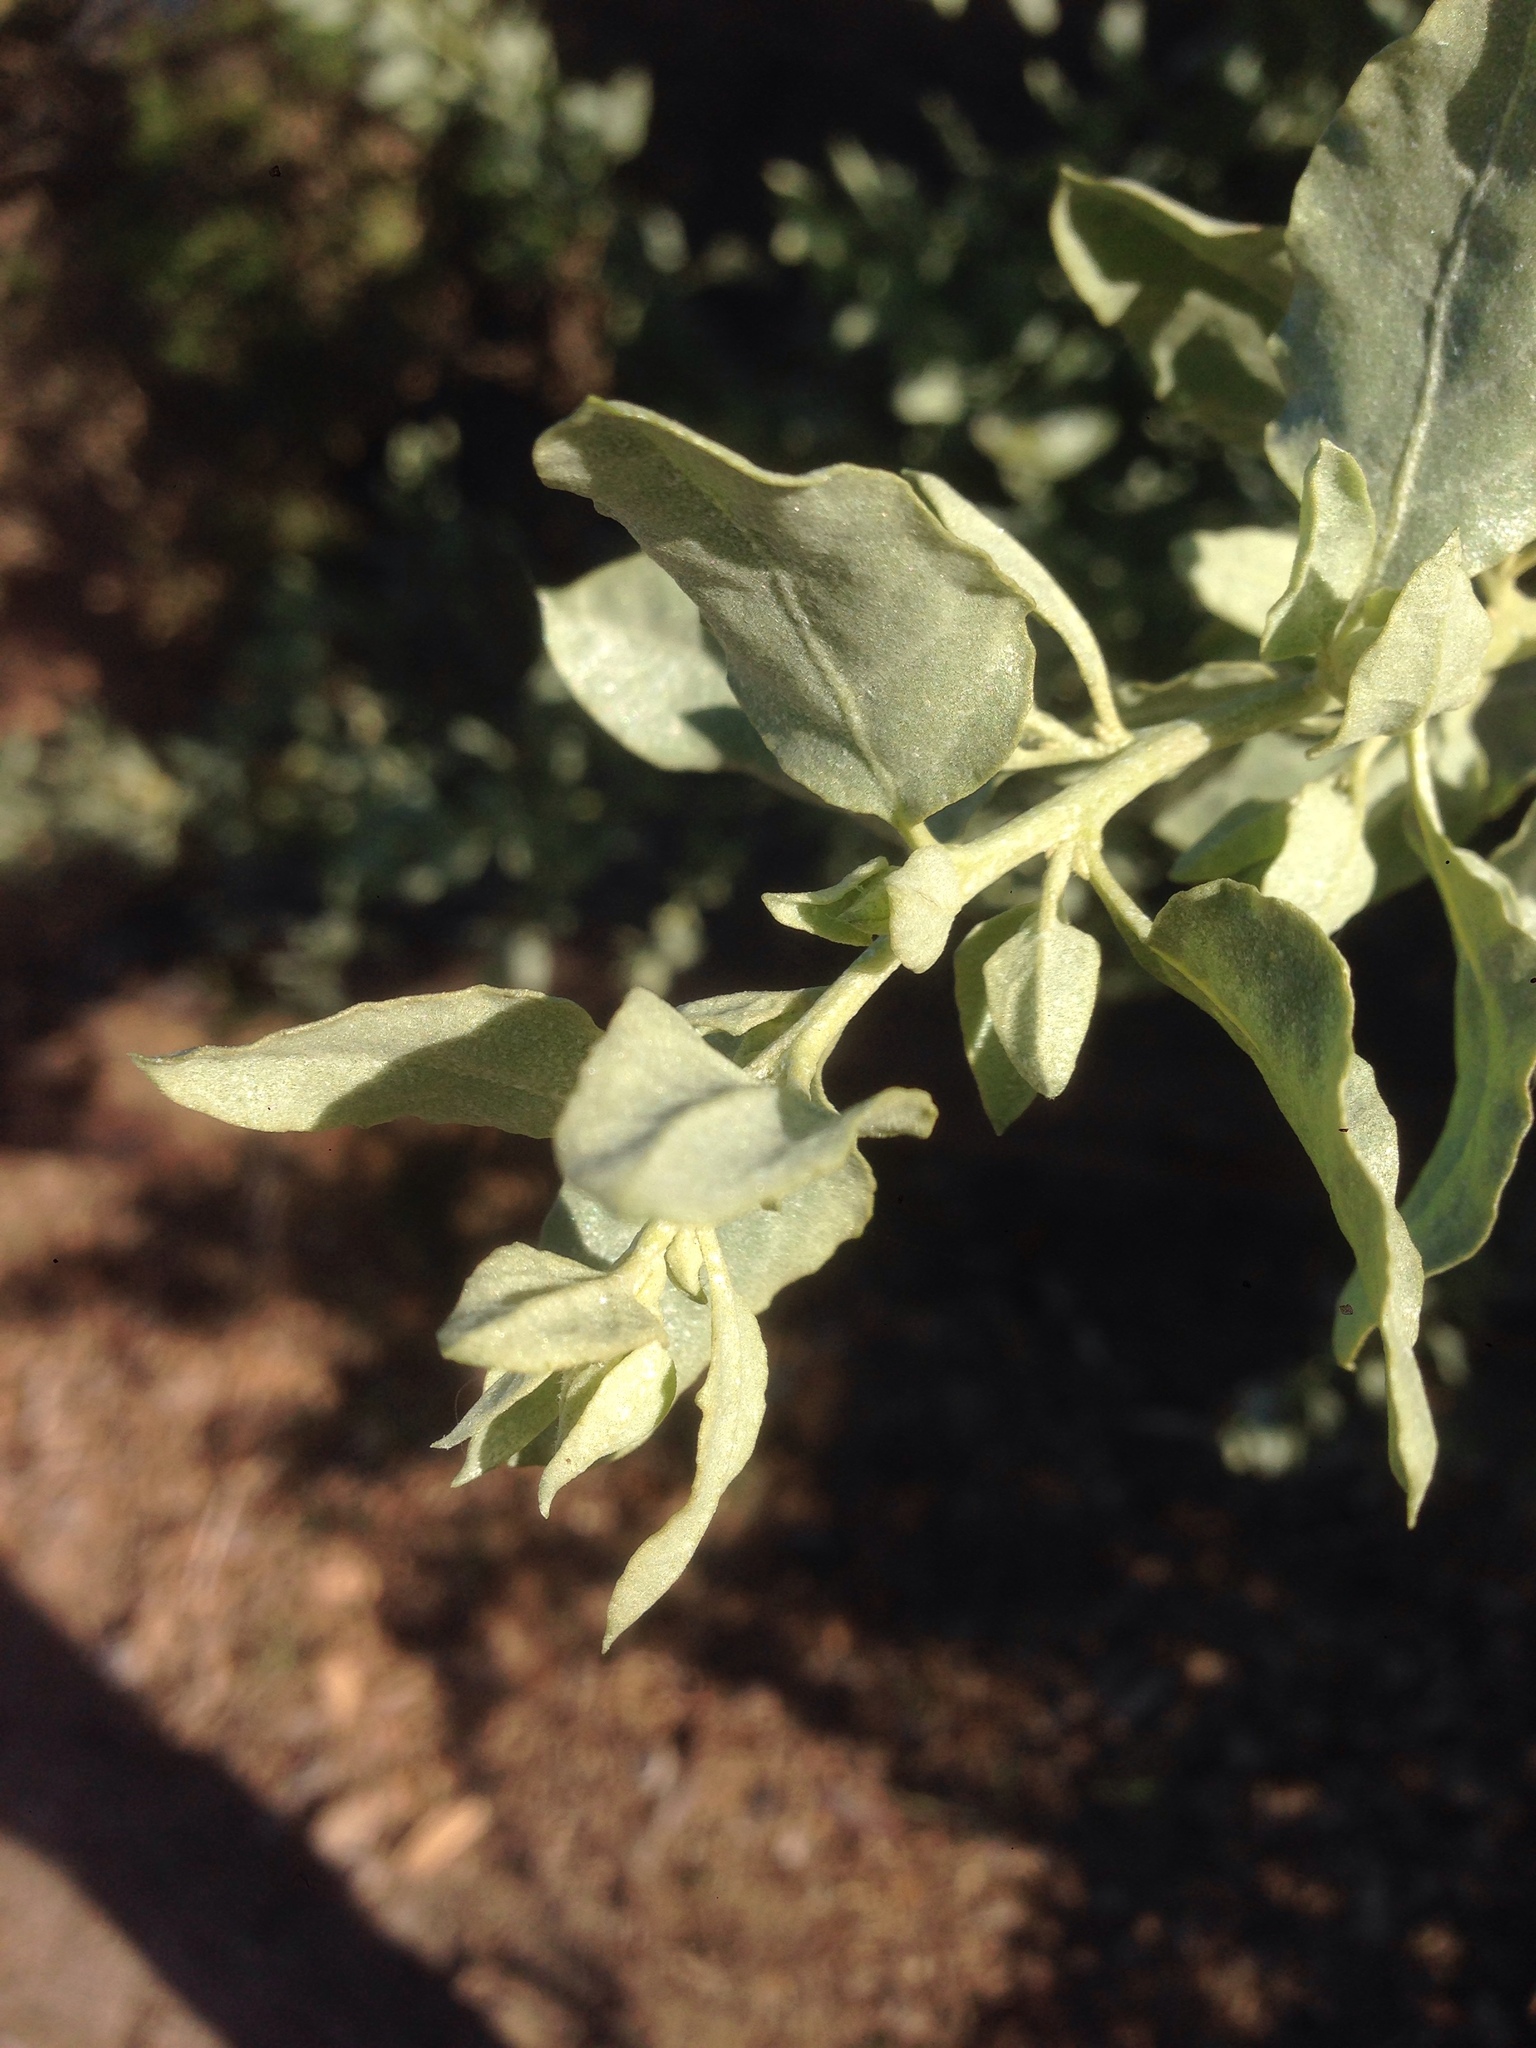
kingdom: Plantae
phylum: Tracheophyta
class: Magnoliopsida
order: Caryophyllales
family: Amaranthaceae
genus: Atriplex
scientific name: Atriplex lentiformis
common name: Big saltbush
